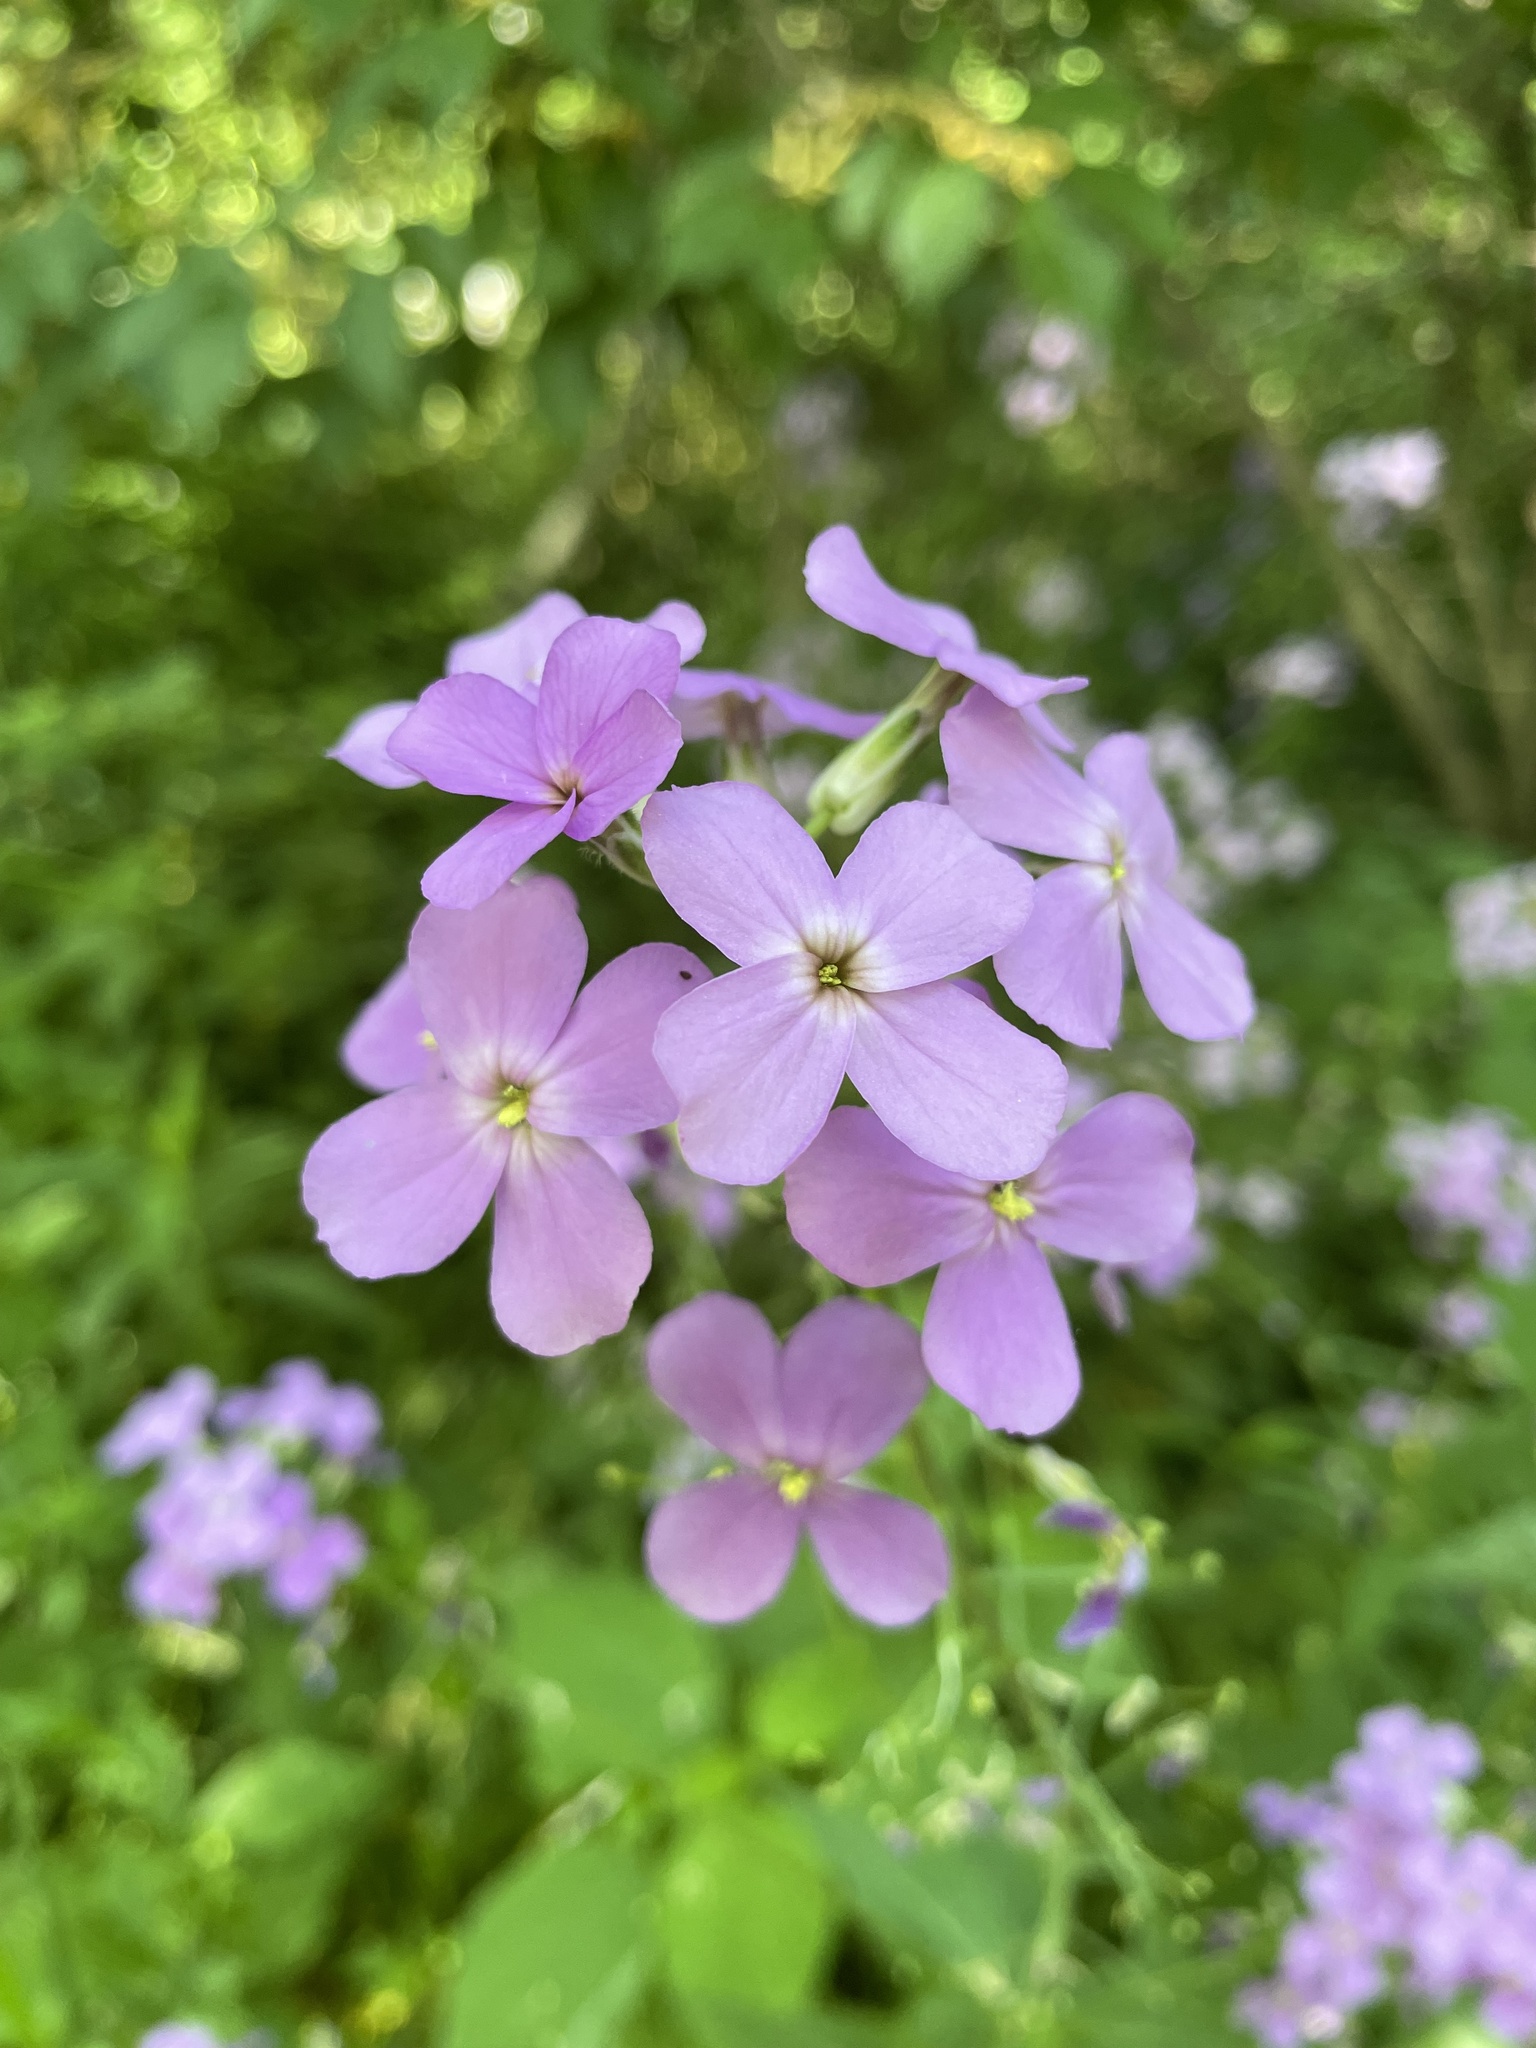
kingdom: Plantae
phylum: Tracheophyta
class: Magnoliopsida
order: Brassicales
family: Brassicaceae
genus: Hesperis
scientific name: Hesperis matronalis
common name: Dame's-violet
